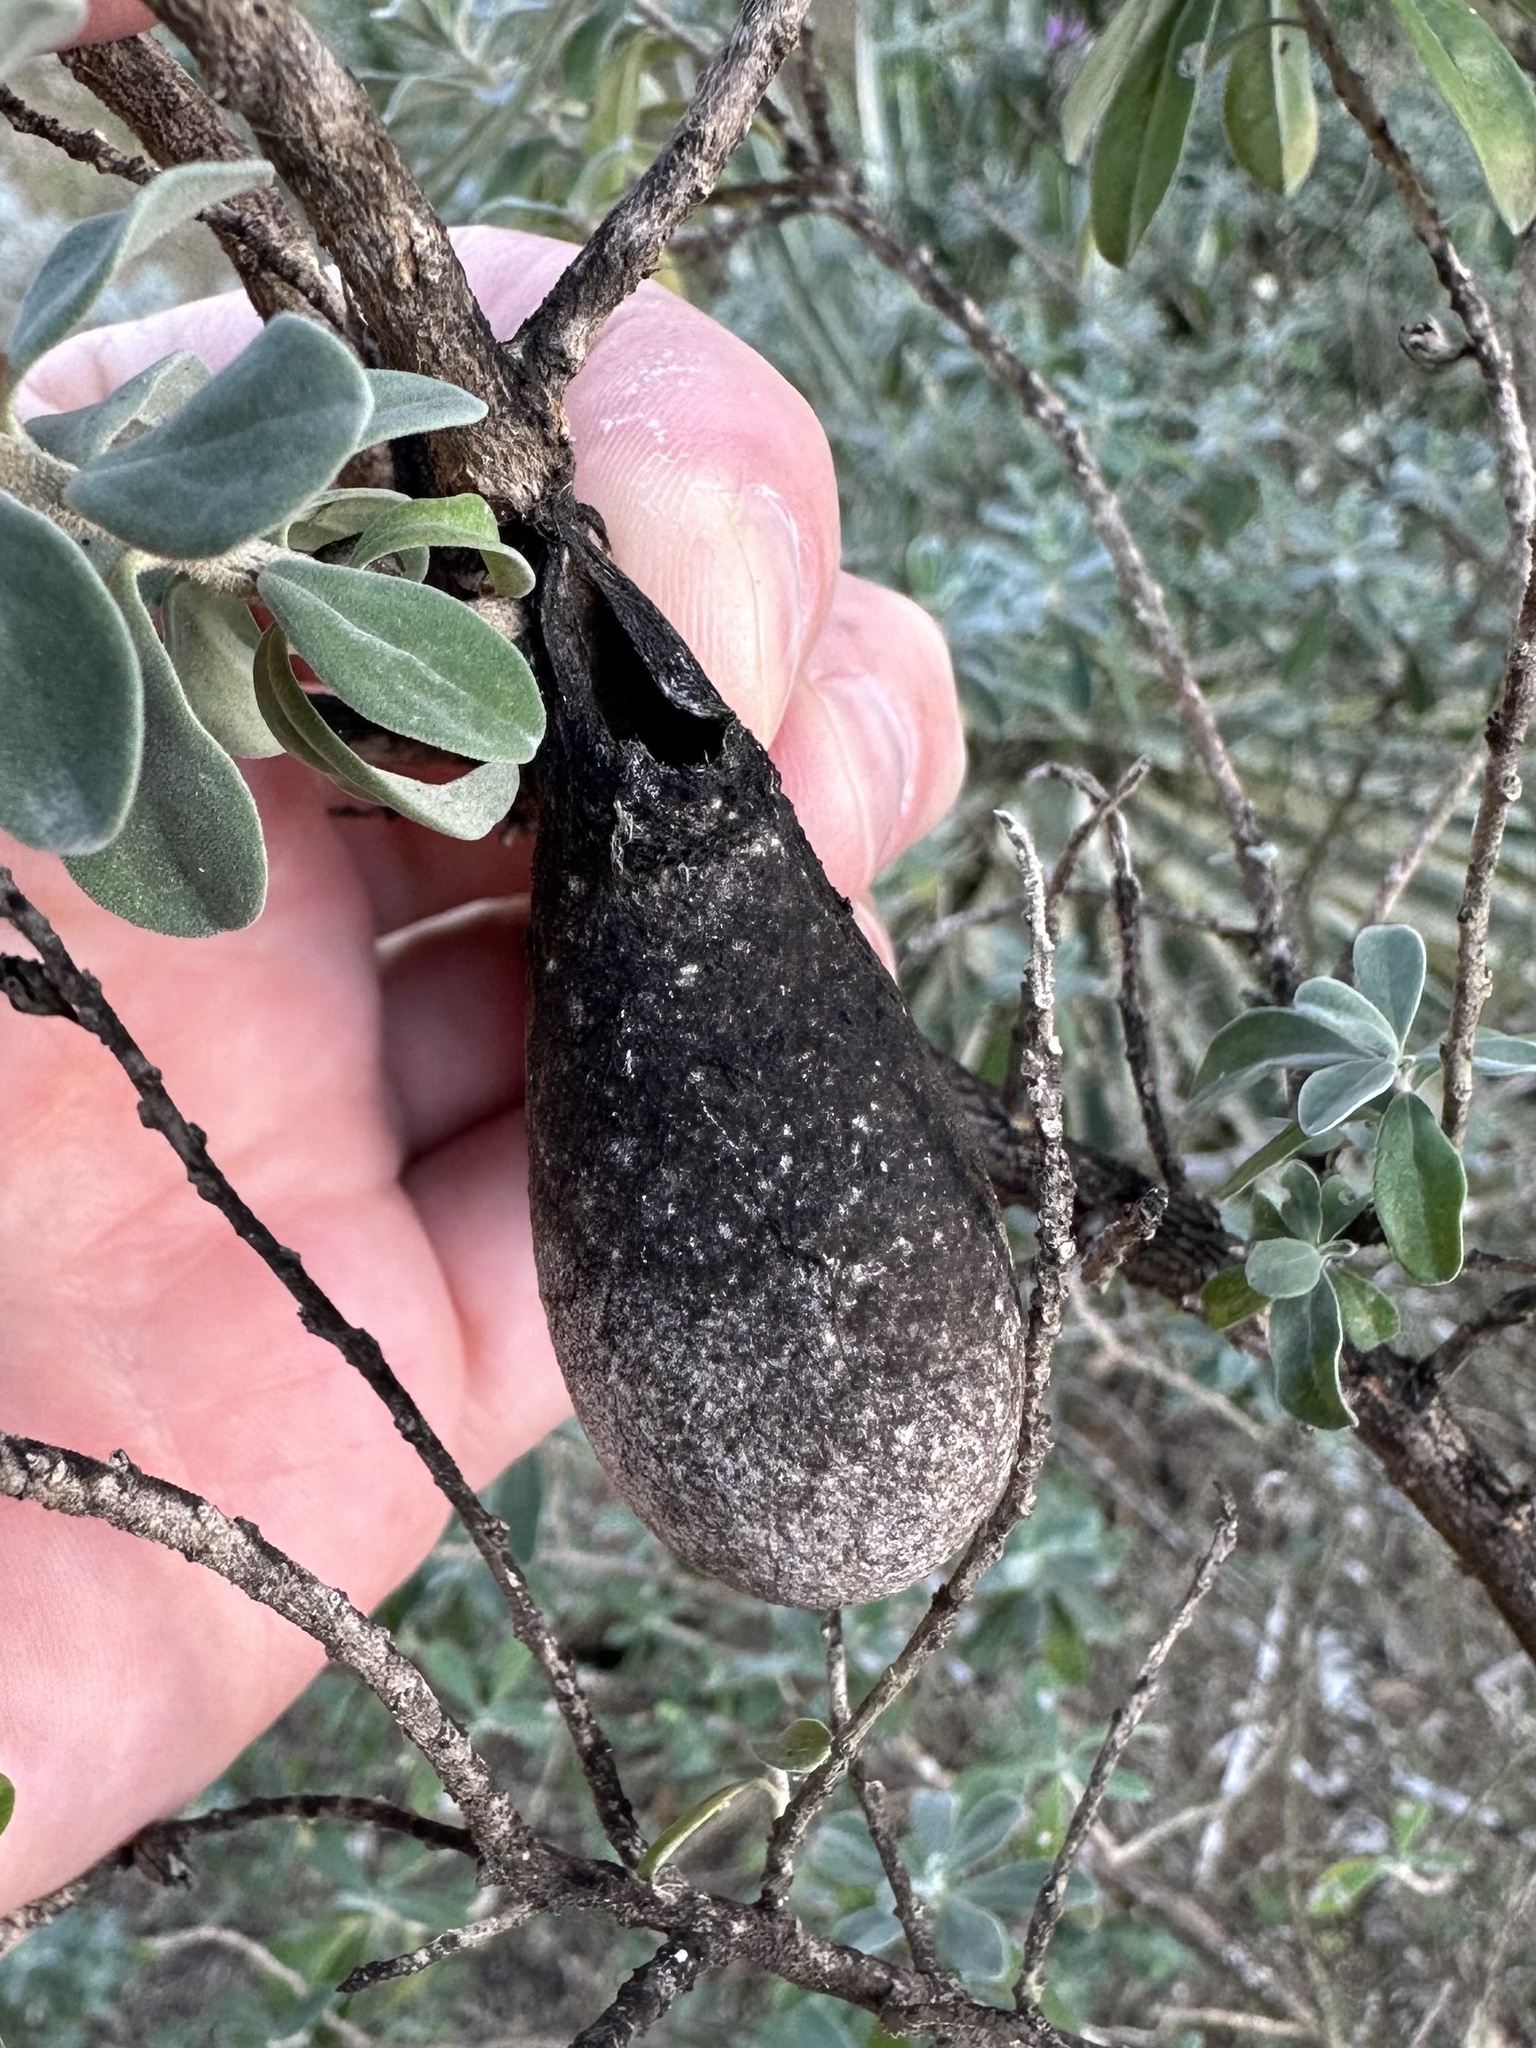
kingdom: Animalia
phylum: Arthropoda
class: Insecta
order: Lepidoptera
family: Saturniidae
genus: Eupackardia
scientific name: Eupackardia calleta
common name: Calleta silkmoth
